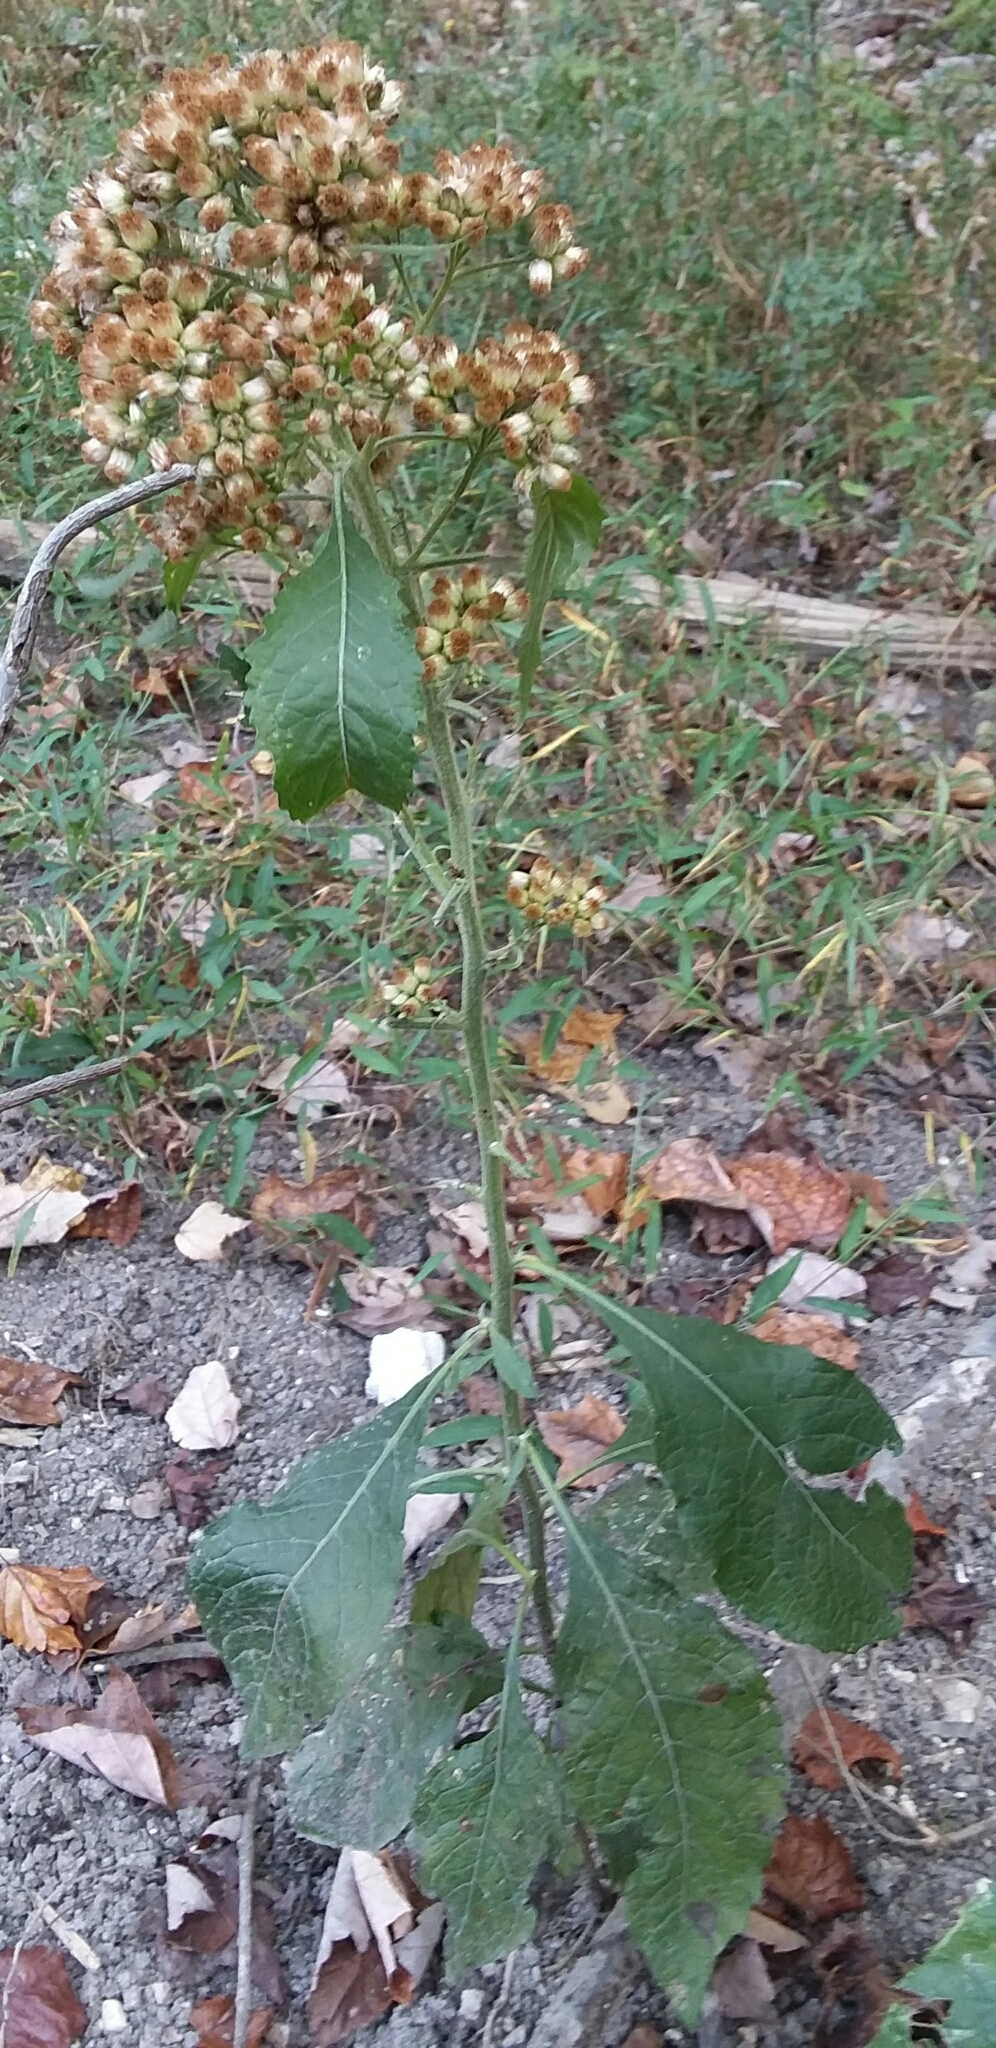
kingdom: Plantae
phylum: Tracheophyta
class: Magnoliopsida
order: Asterales
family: Asteraceae
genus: Pluchea
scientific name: Pluchea camphorata
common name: Camphor pluchea
